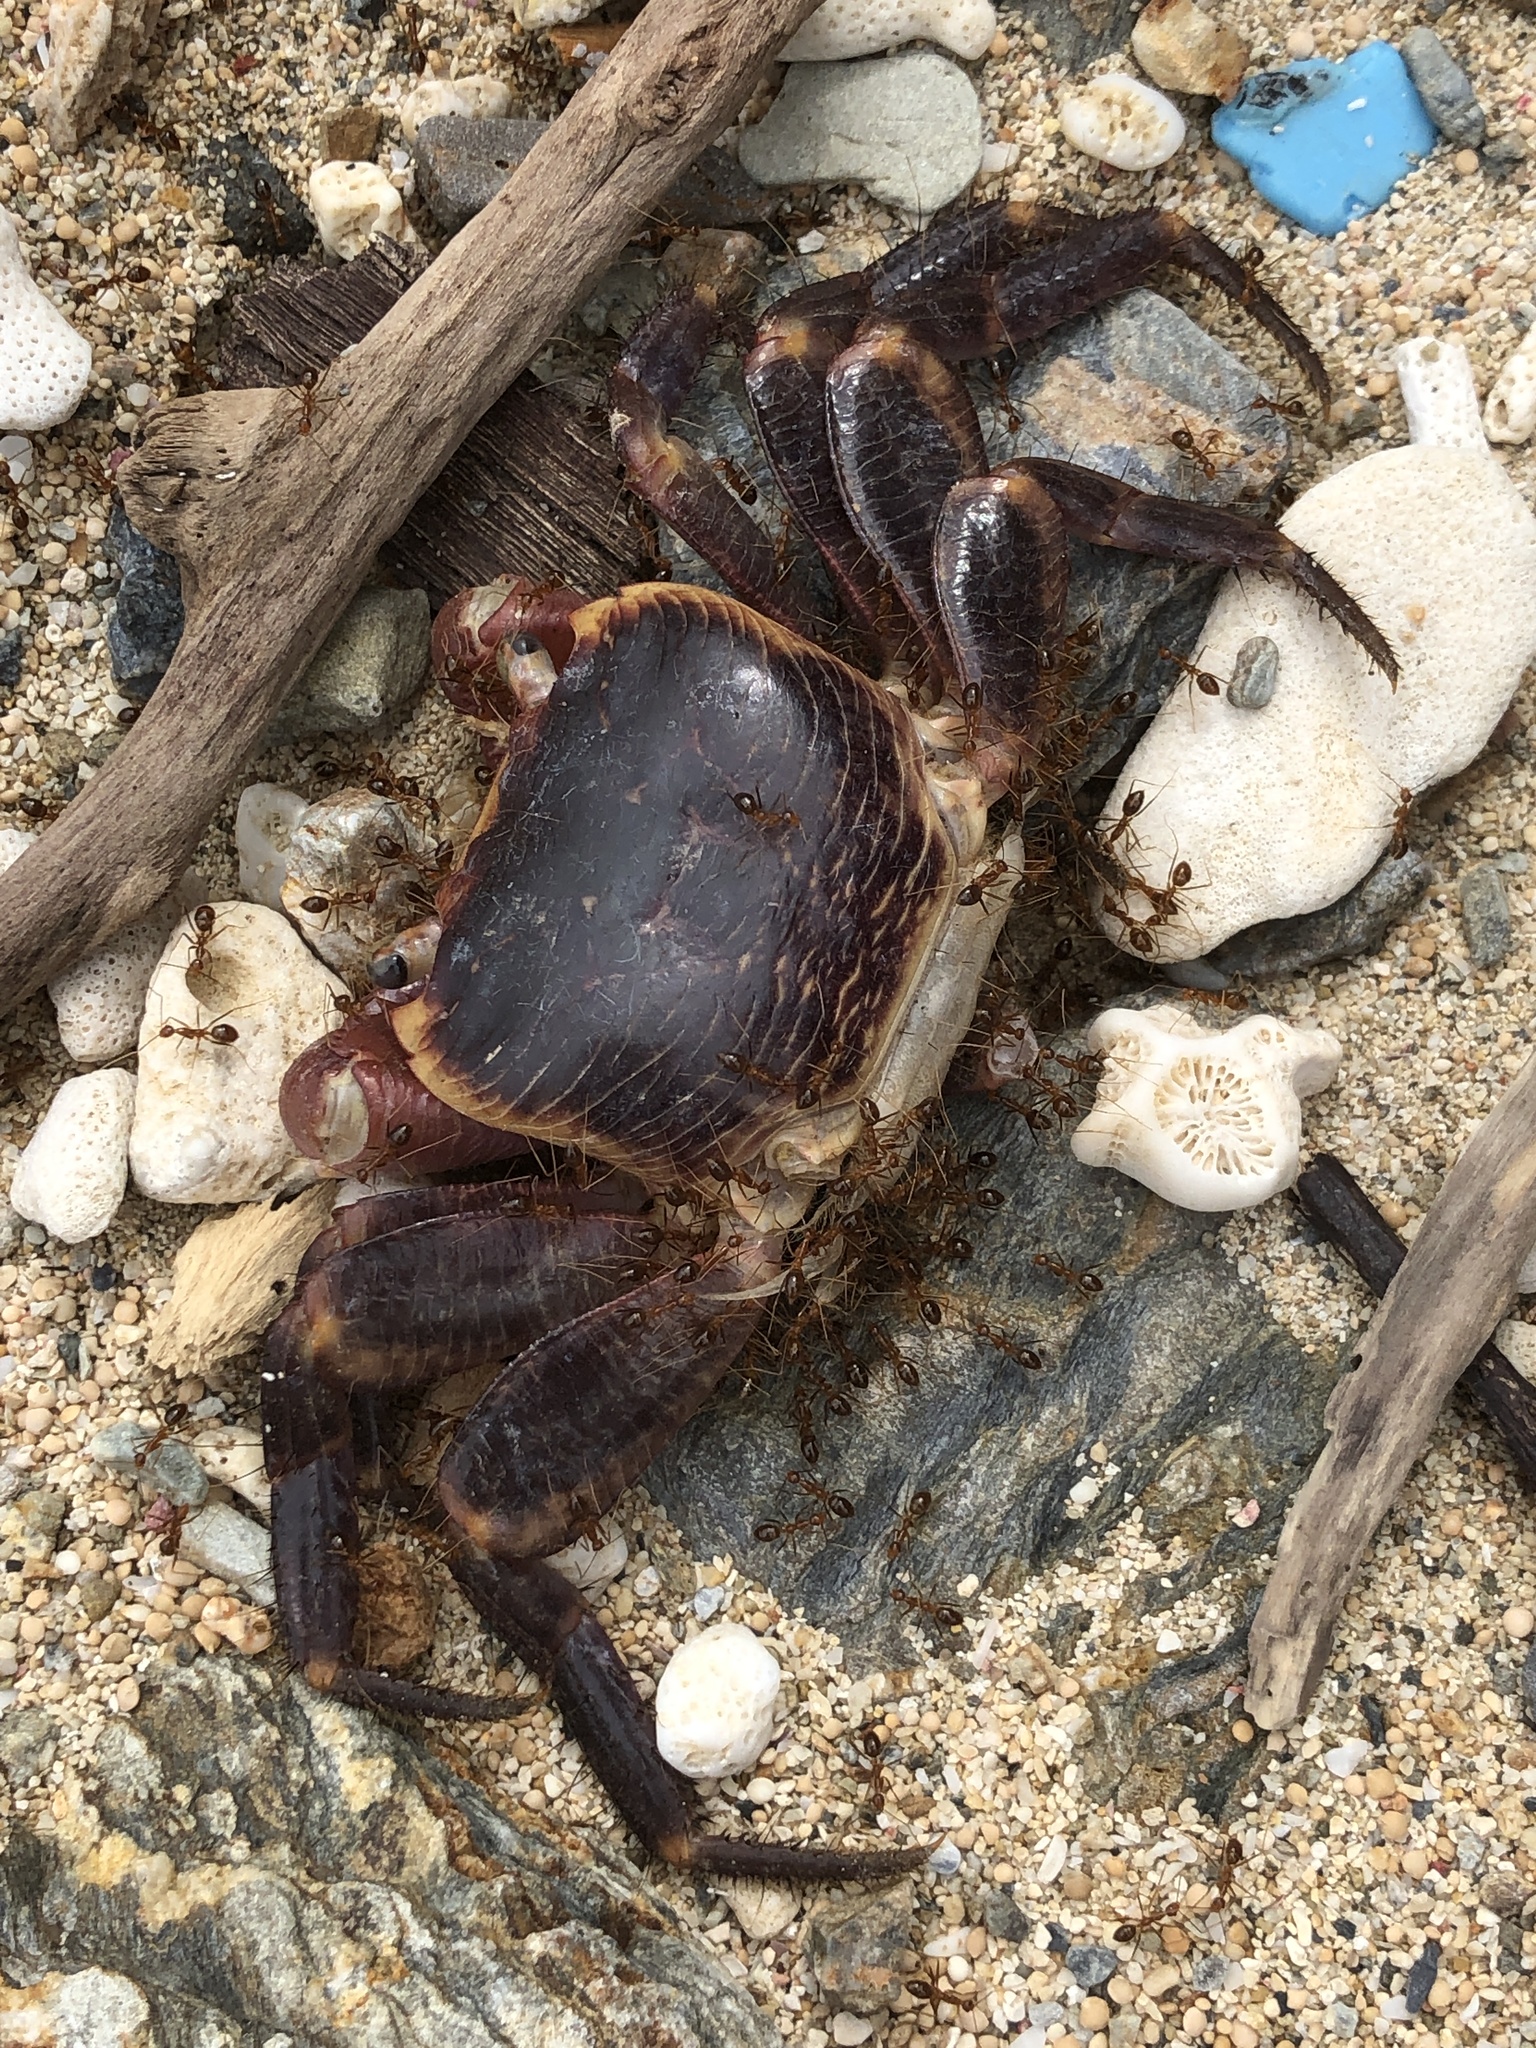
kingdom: Animalia
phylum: Arthropoda
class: Malacostraca
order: Decapoda
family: Grapsidae
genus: Geograpsus
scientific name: Geograpsus grayi
